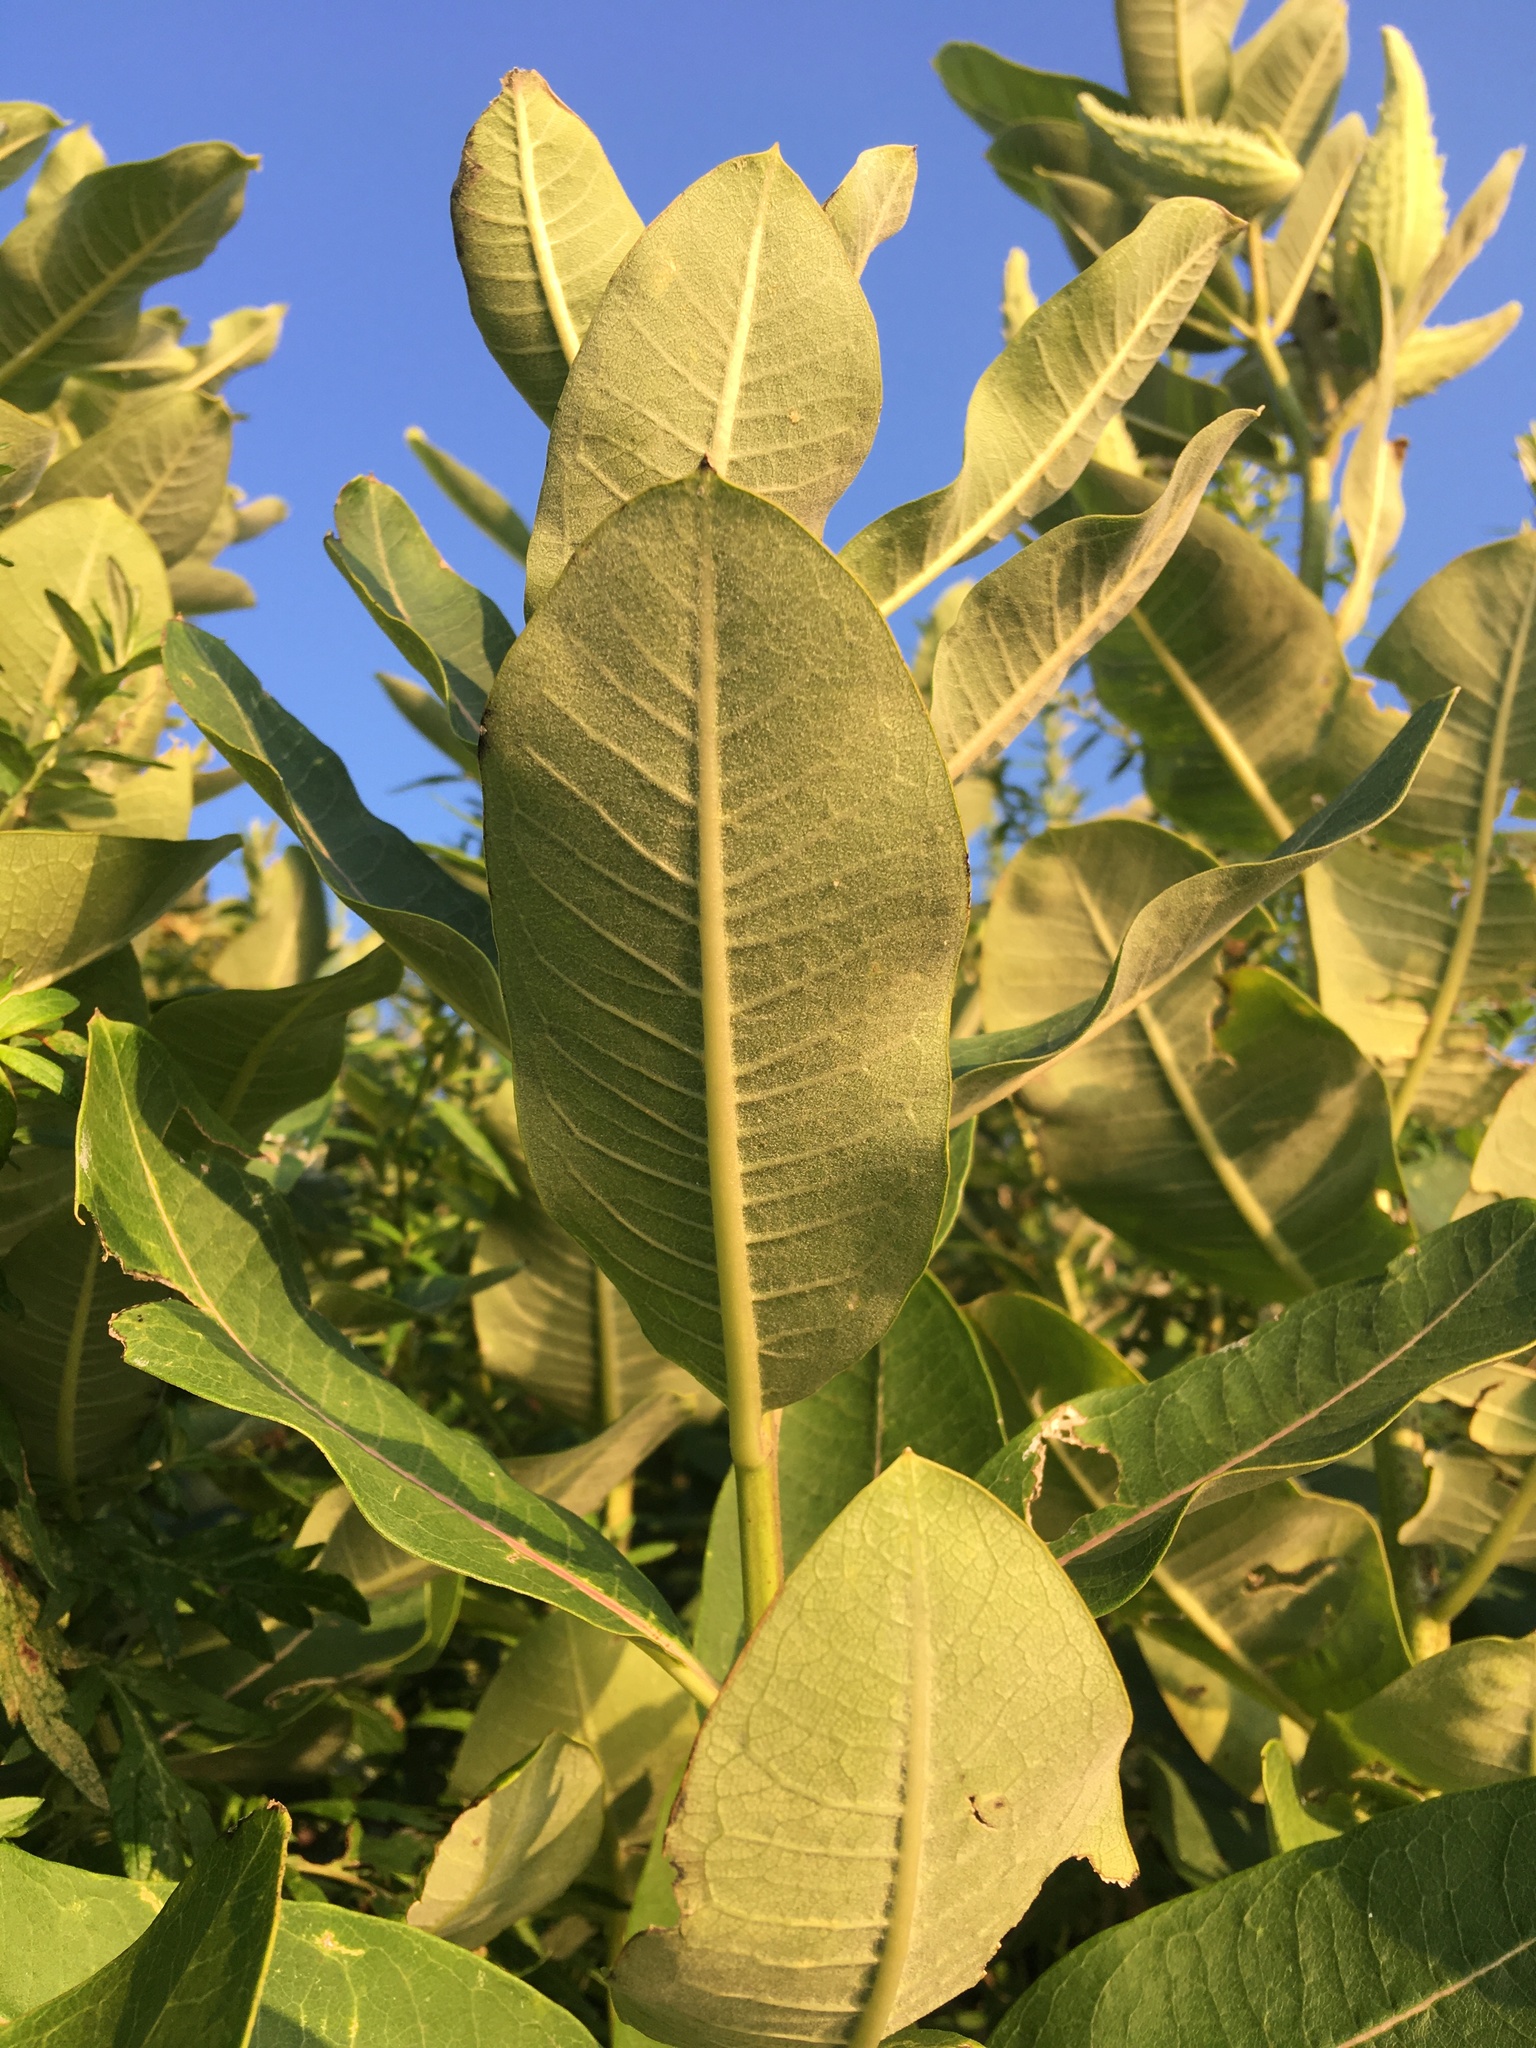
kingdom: Plantae
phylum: Tracheophyta
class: Magnoliopsida
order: Gentianales
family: Apocynaceae
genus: Asclepias
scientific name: Asclepias syriaca
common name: Common milkweed
